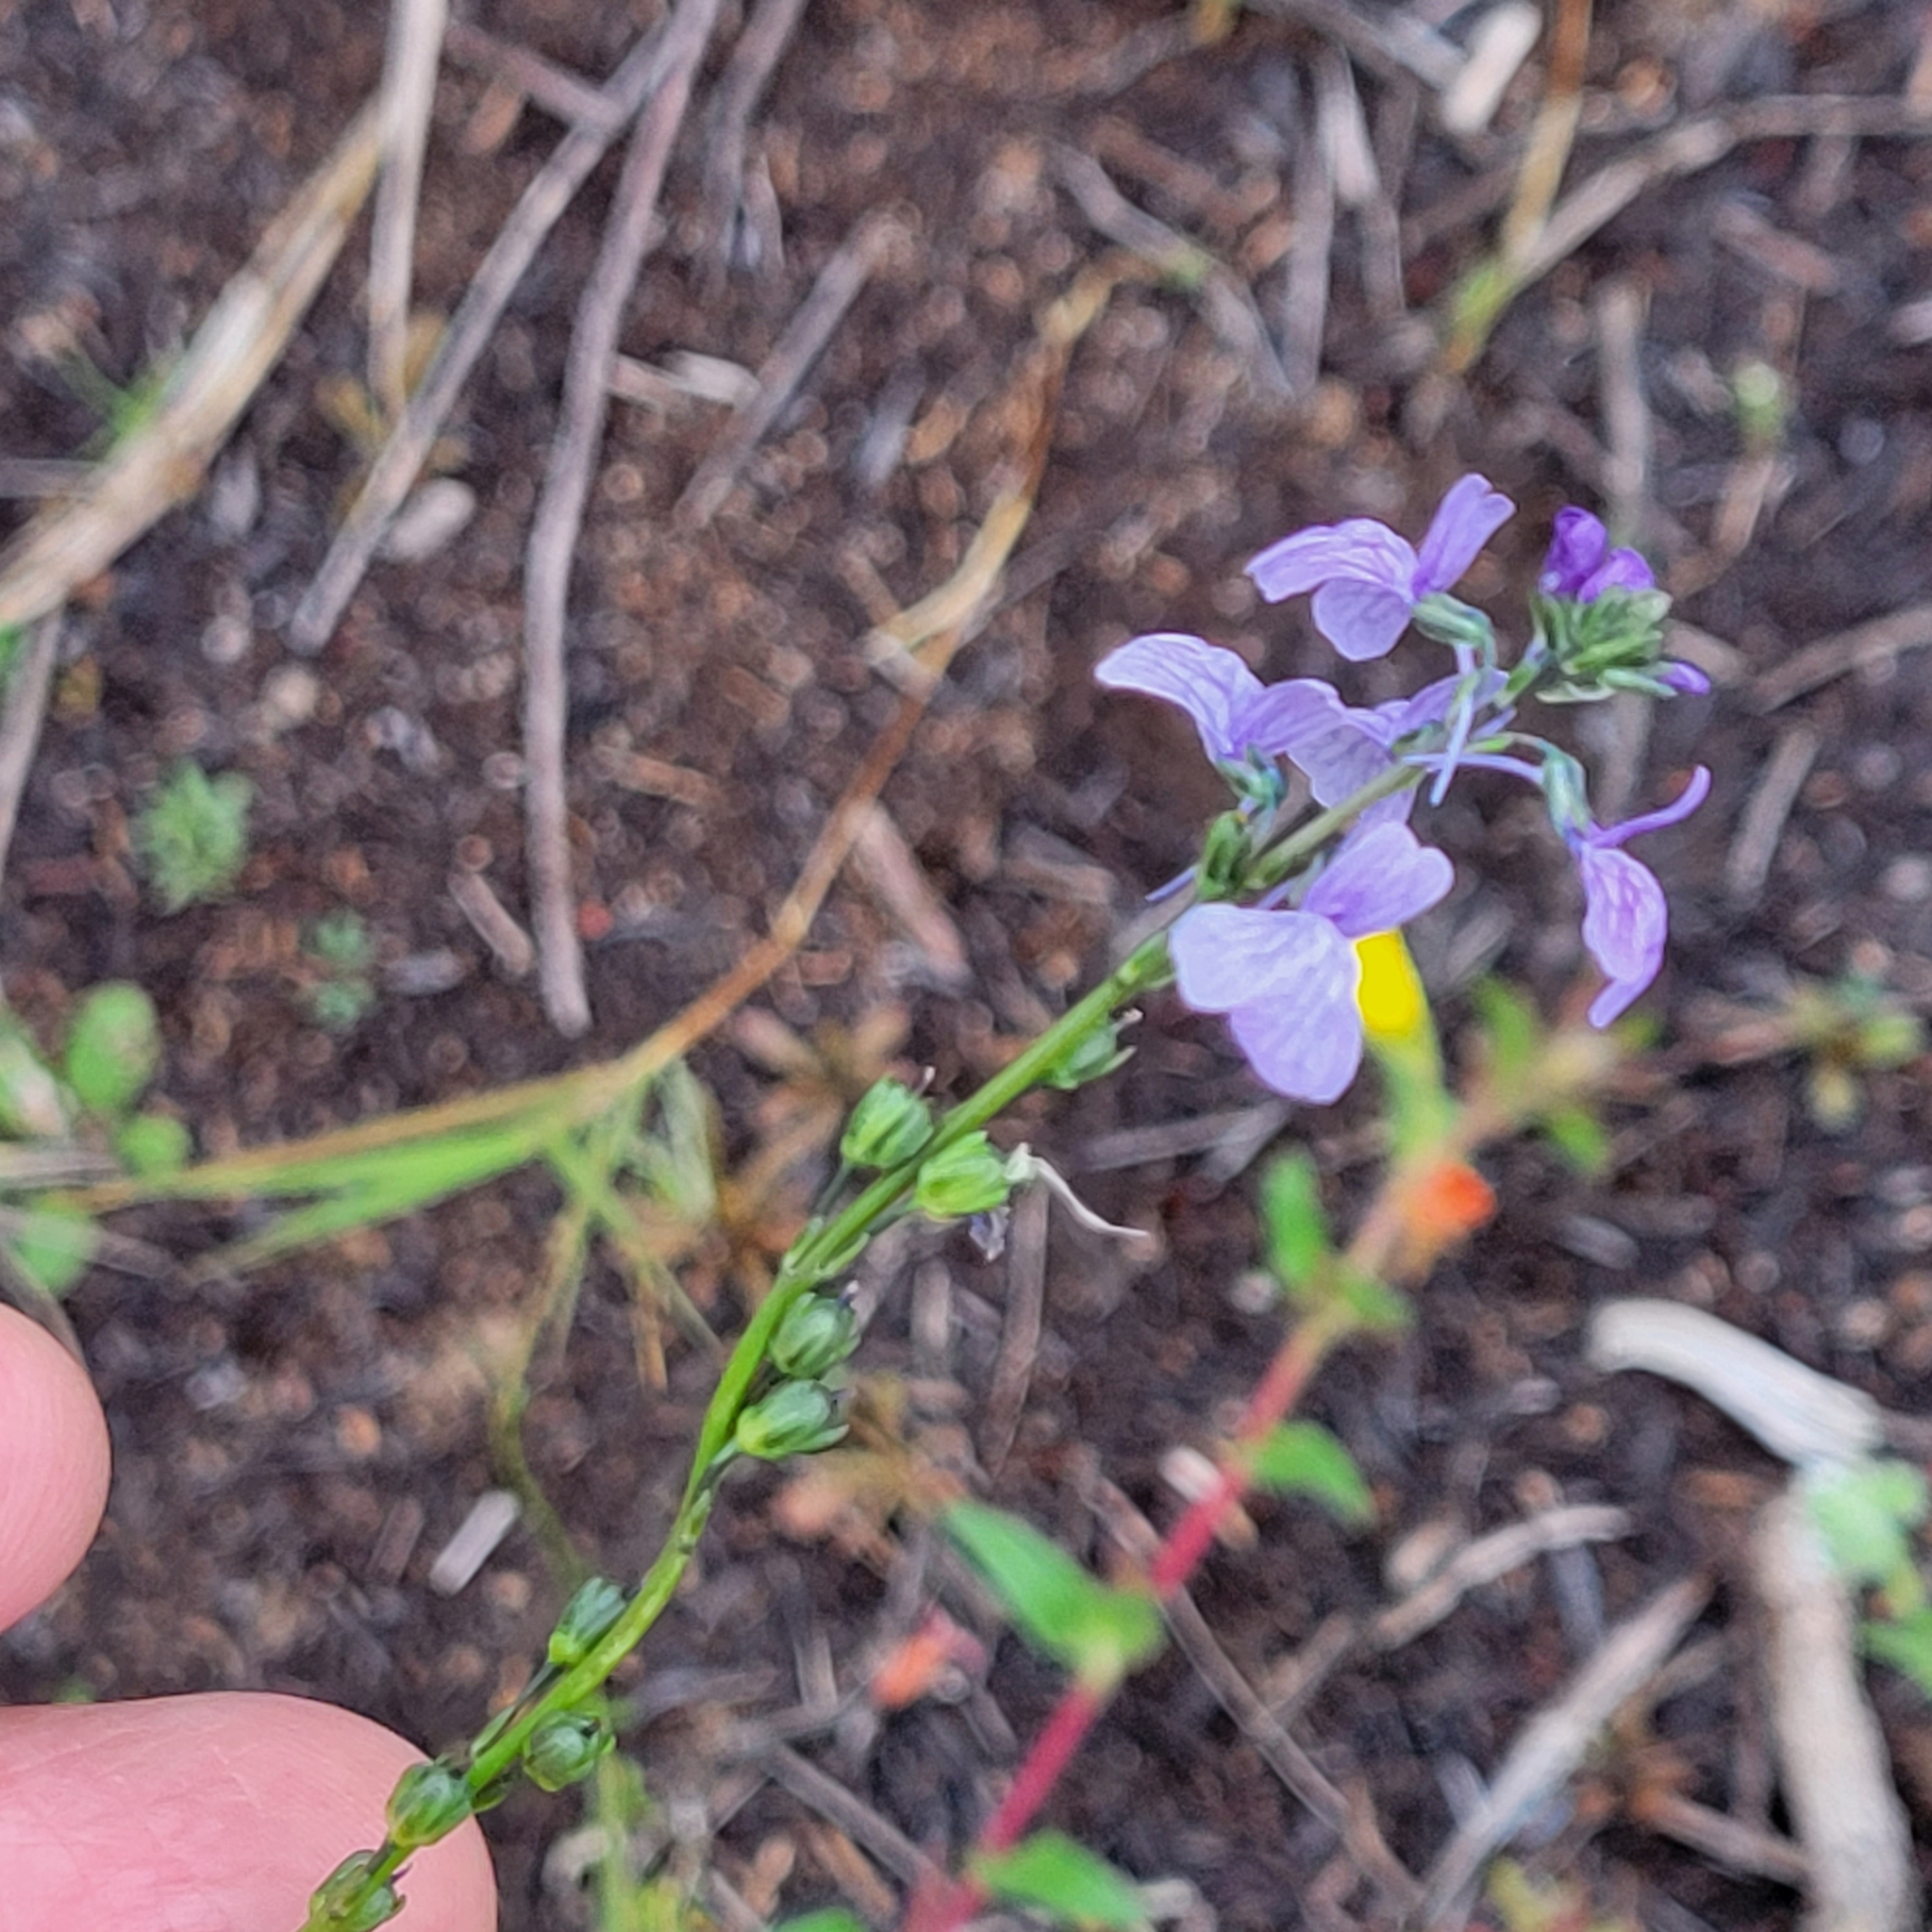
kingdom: Plantae
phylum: Tracheophyta
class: Magnoliopsida
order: Lamiales
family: Plantaginaceae
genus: Nuttallanthus
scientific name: Nuttallanthus texanus
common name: Texas toadflax
